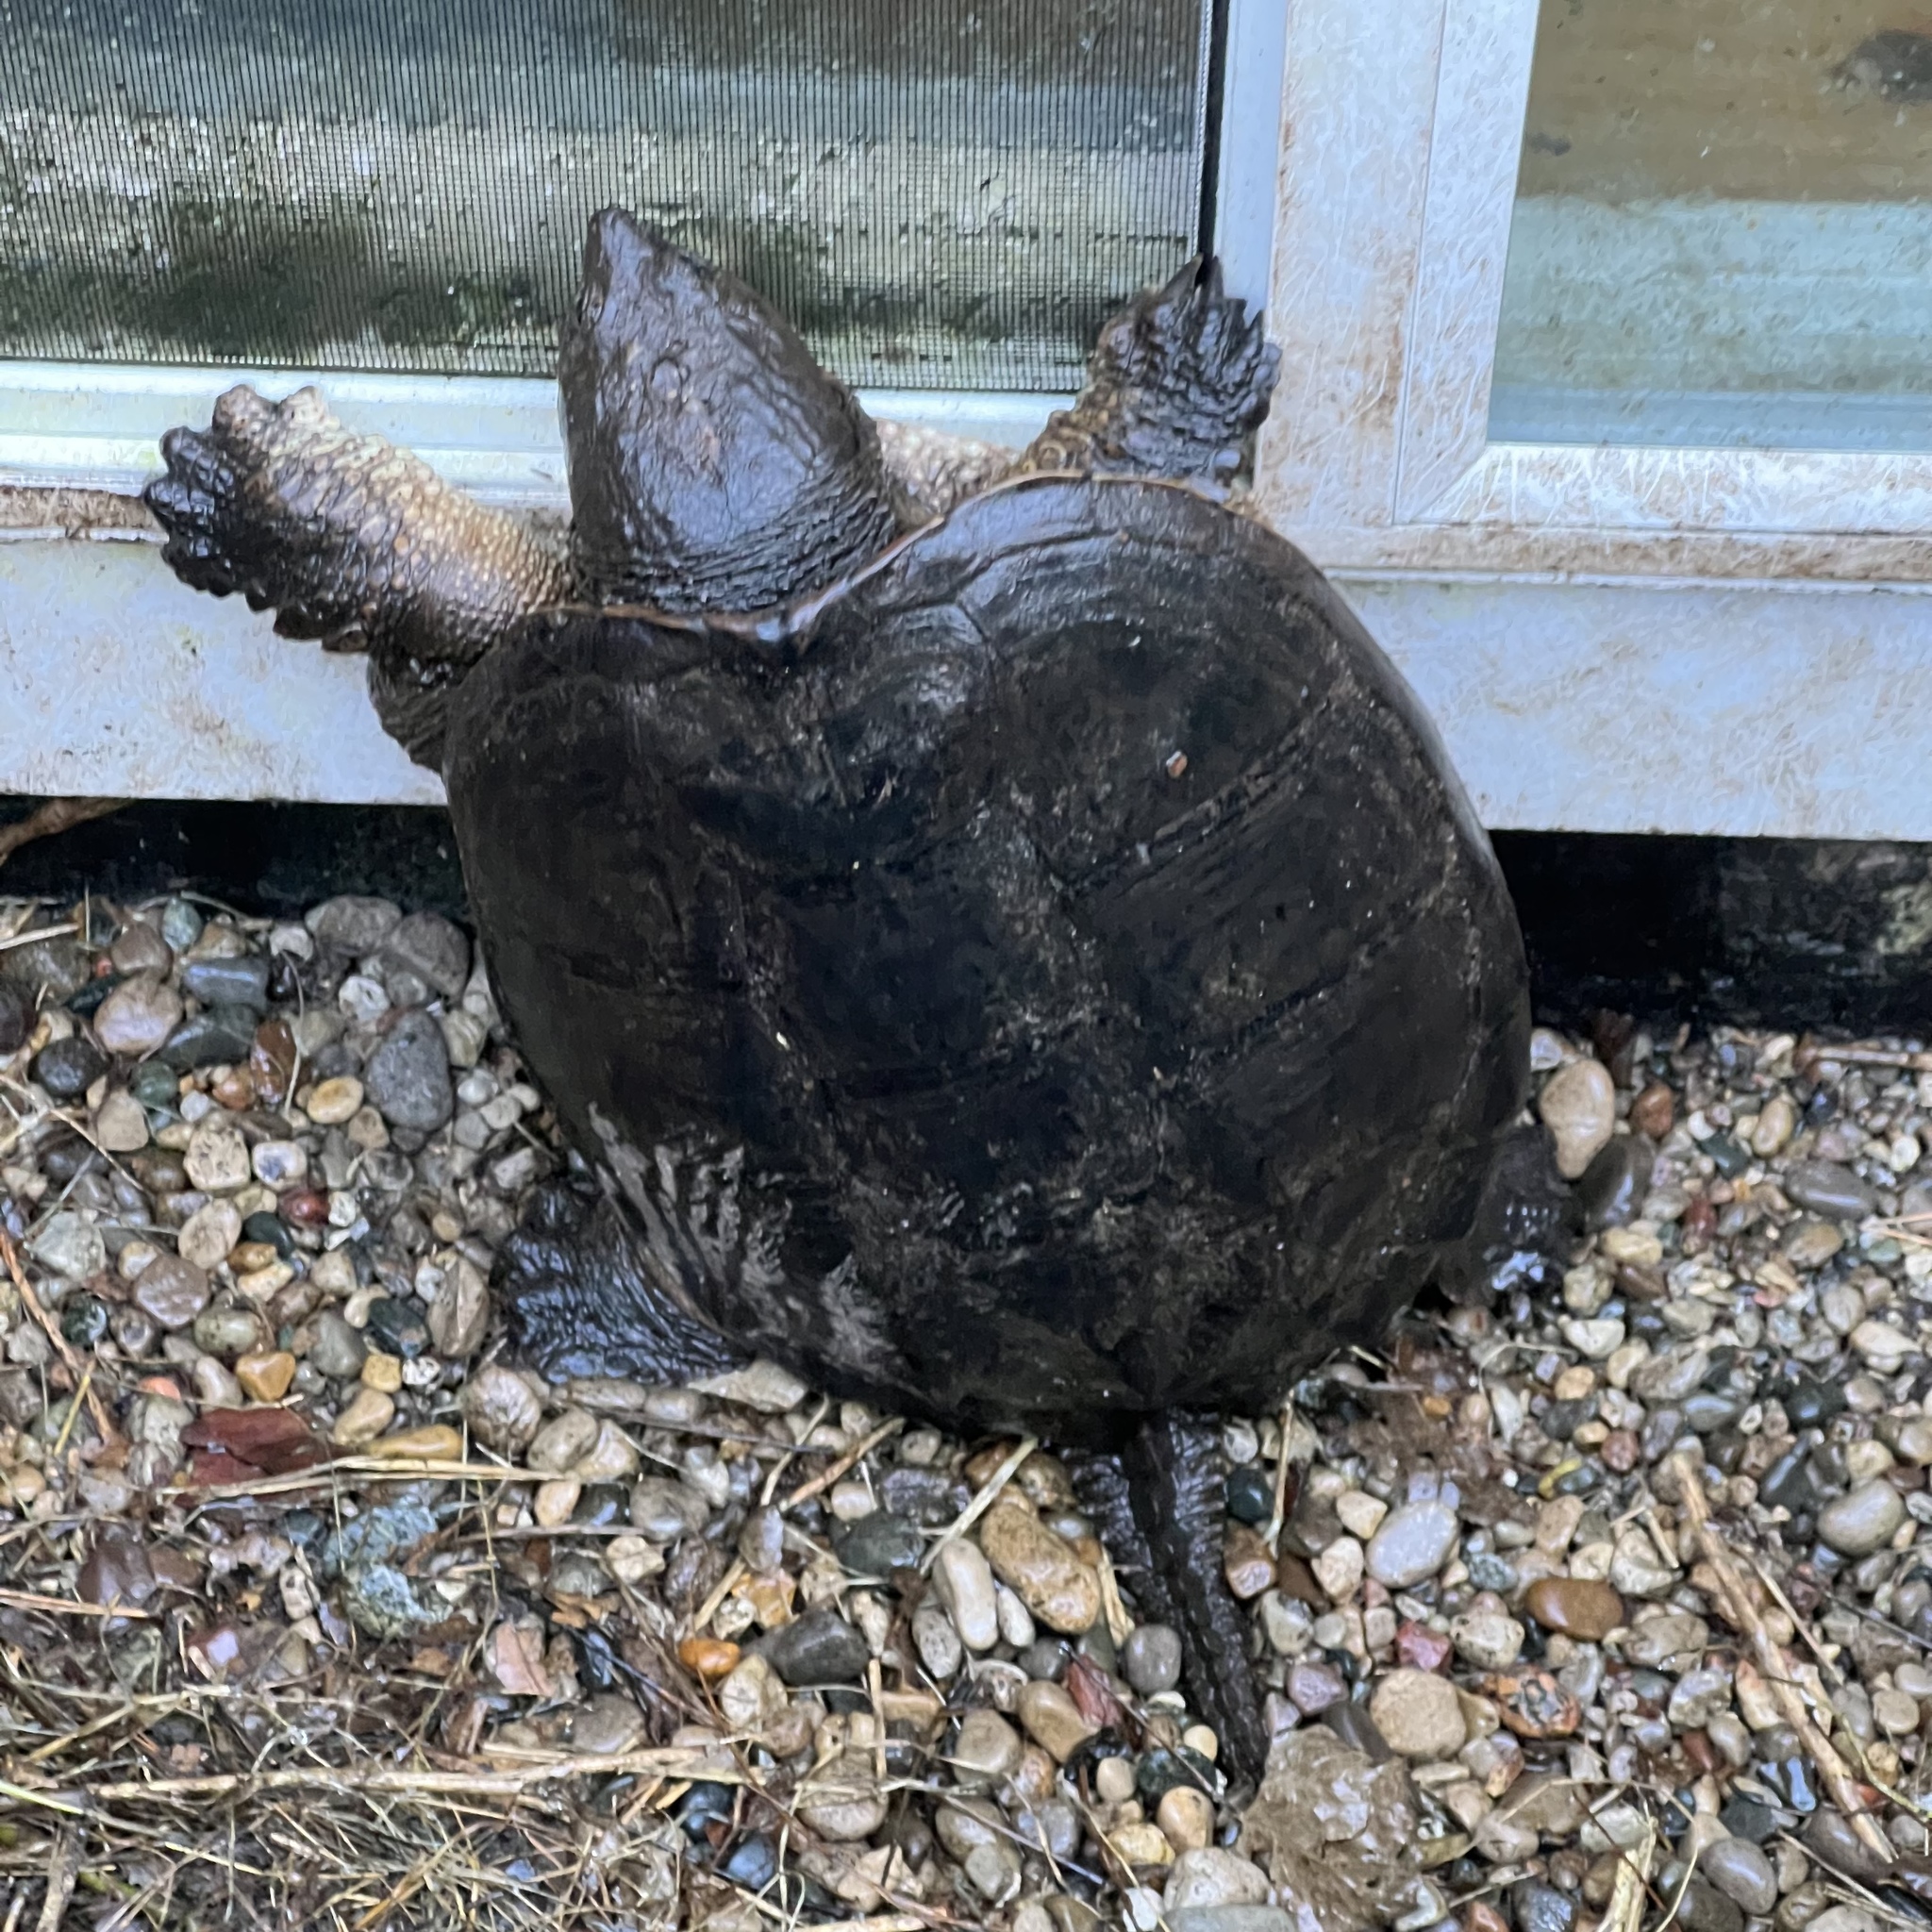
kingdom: Animalia
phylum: Chordata
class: Testudines
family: Chelydridae
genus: Chelydra
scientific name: Chelydra serpentina
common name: Common snapping turtle
